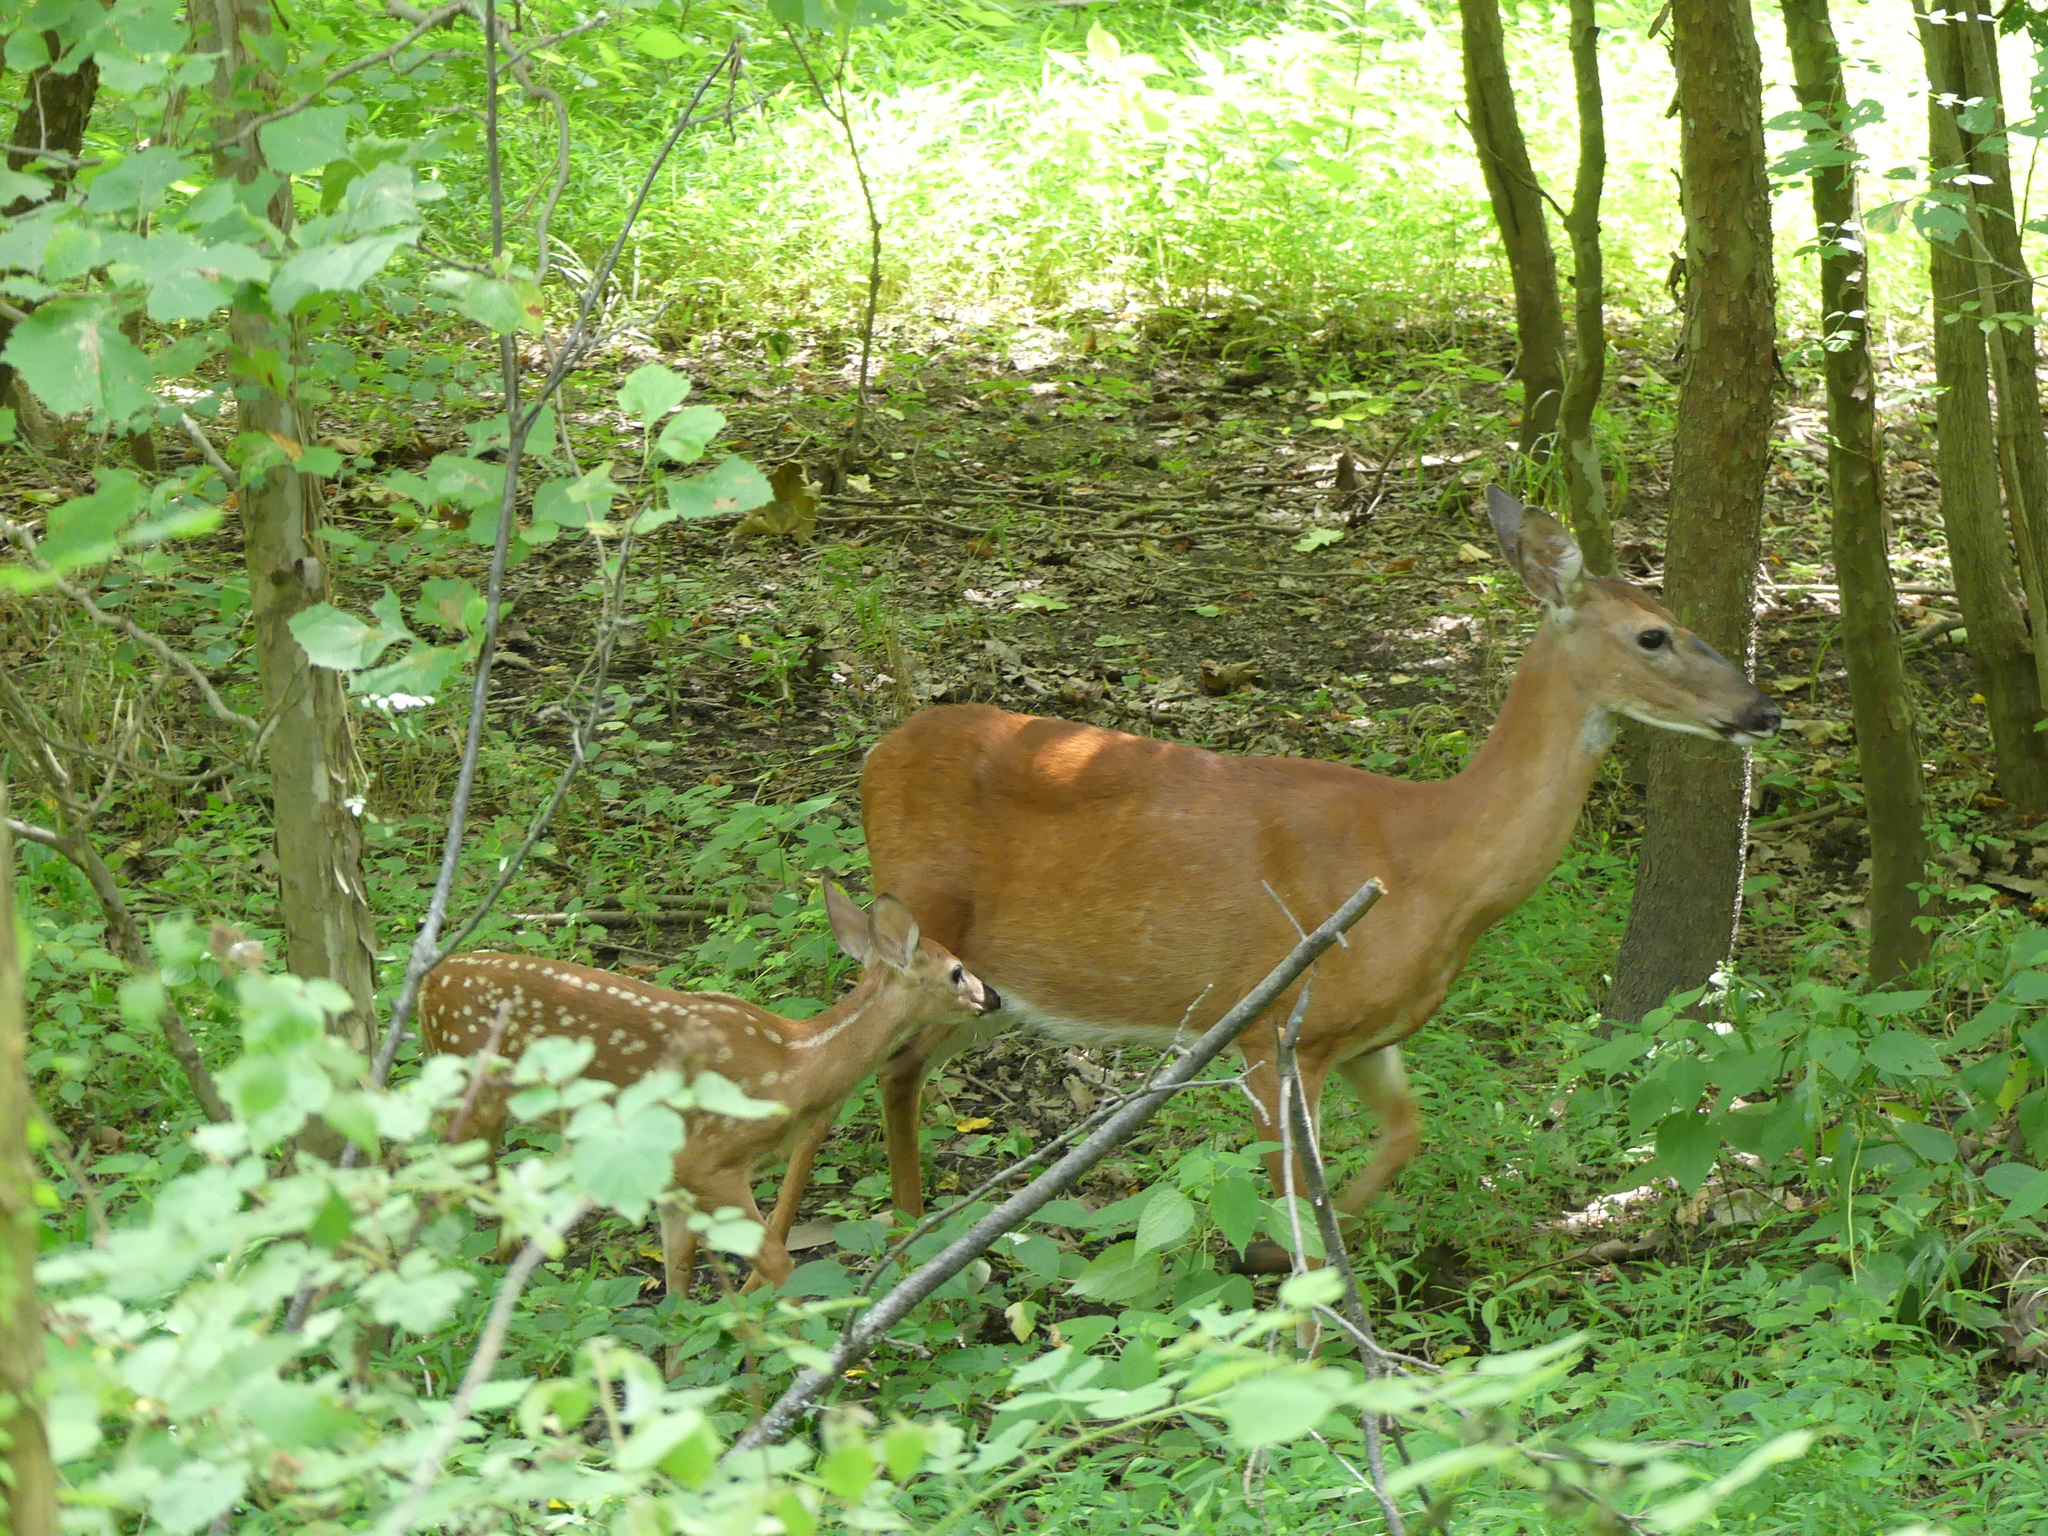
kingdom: Animalia
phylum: Chordata
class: Mammalia
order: Artiodactyla
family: Cervidae
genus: Odocoileus
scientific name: Odocoileus virginianus
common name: White-tailed deer
